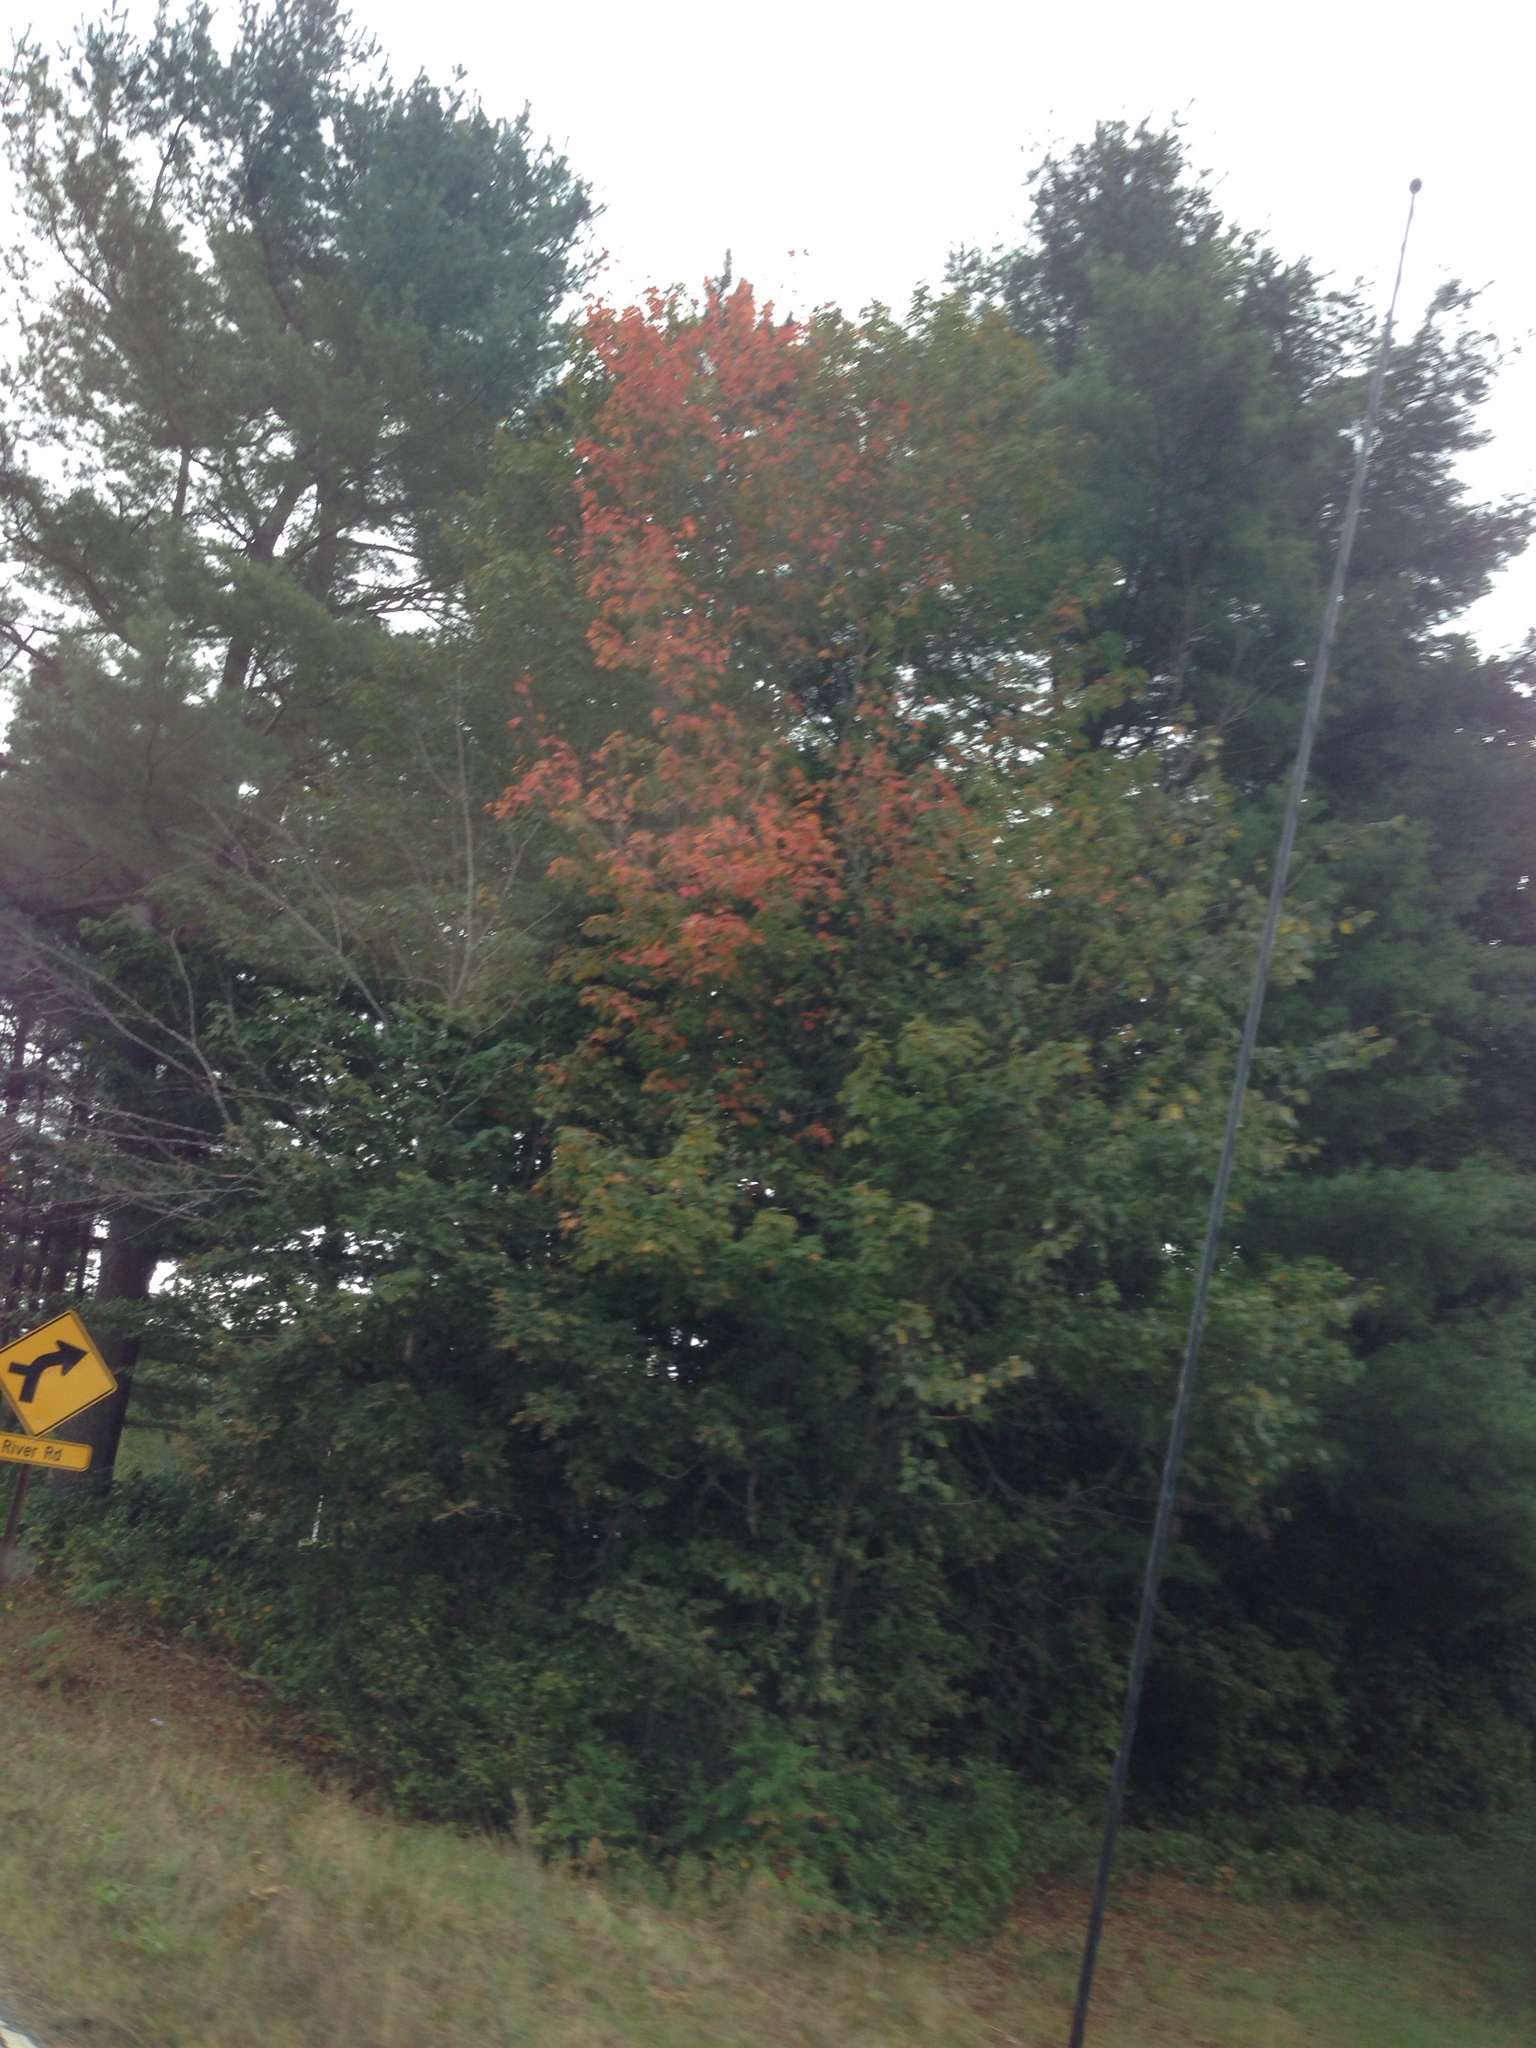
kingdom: Plantae
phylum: Tracheophyta
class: Magnoliopsida
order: Sapindales
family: Sapindaceae
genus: Acer
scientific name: Acer rubrum
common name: Red maple
